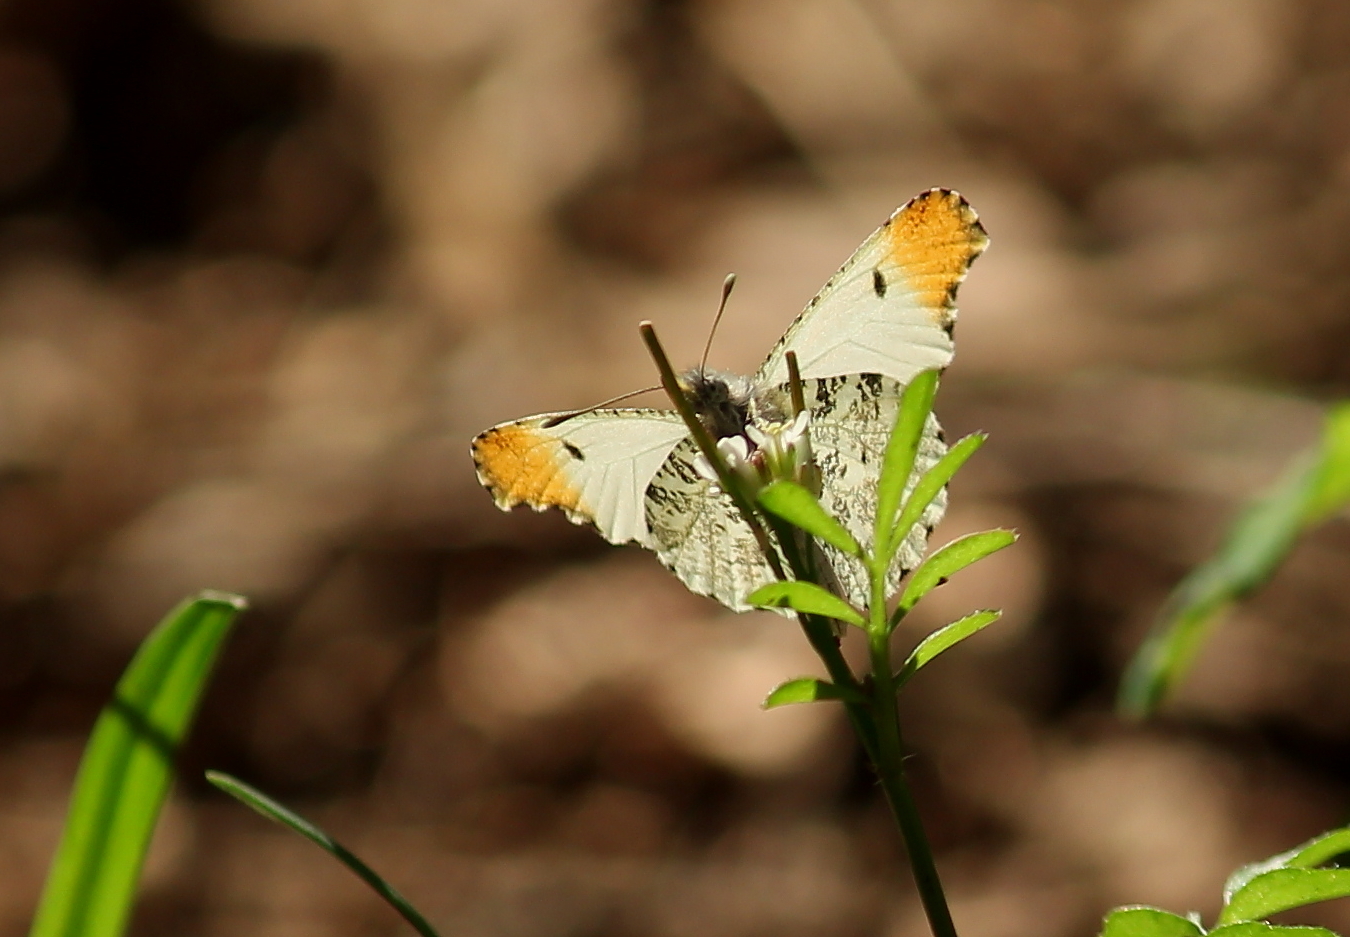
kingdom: Animalia
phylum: Arthropoda
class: Insecta
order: Lepidoptera
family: Pieridae
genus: Anthocharis
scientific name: Anthocharis midea
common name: Falcate orangetip
